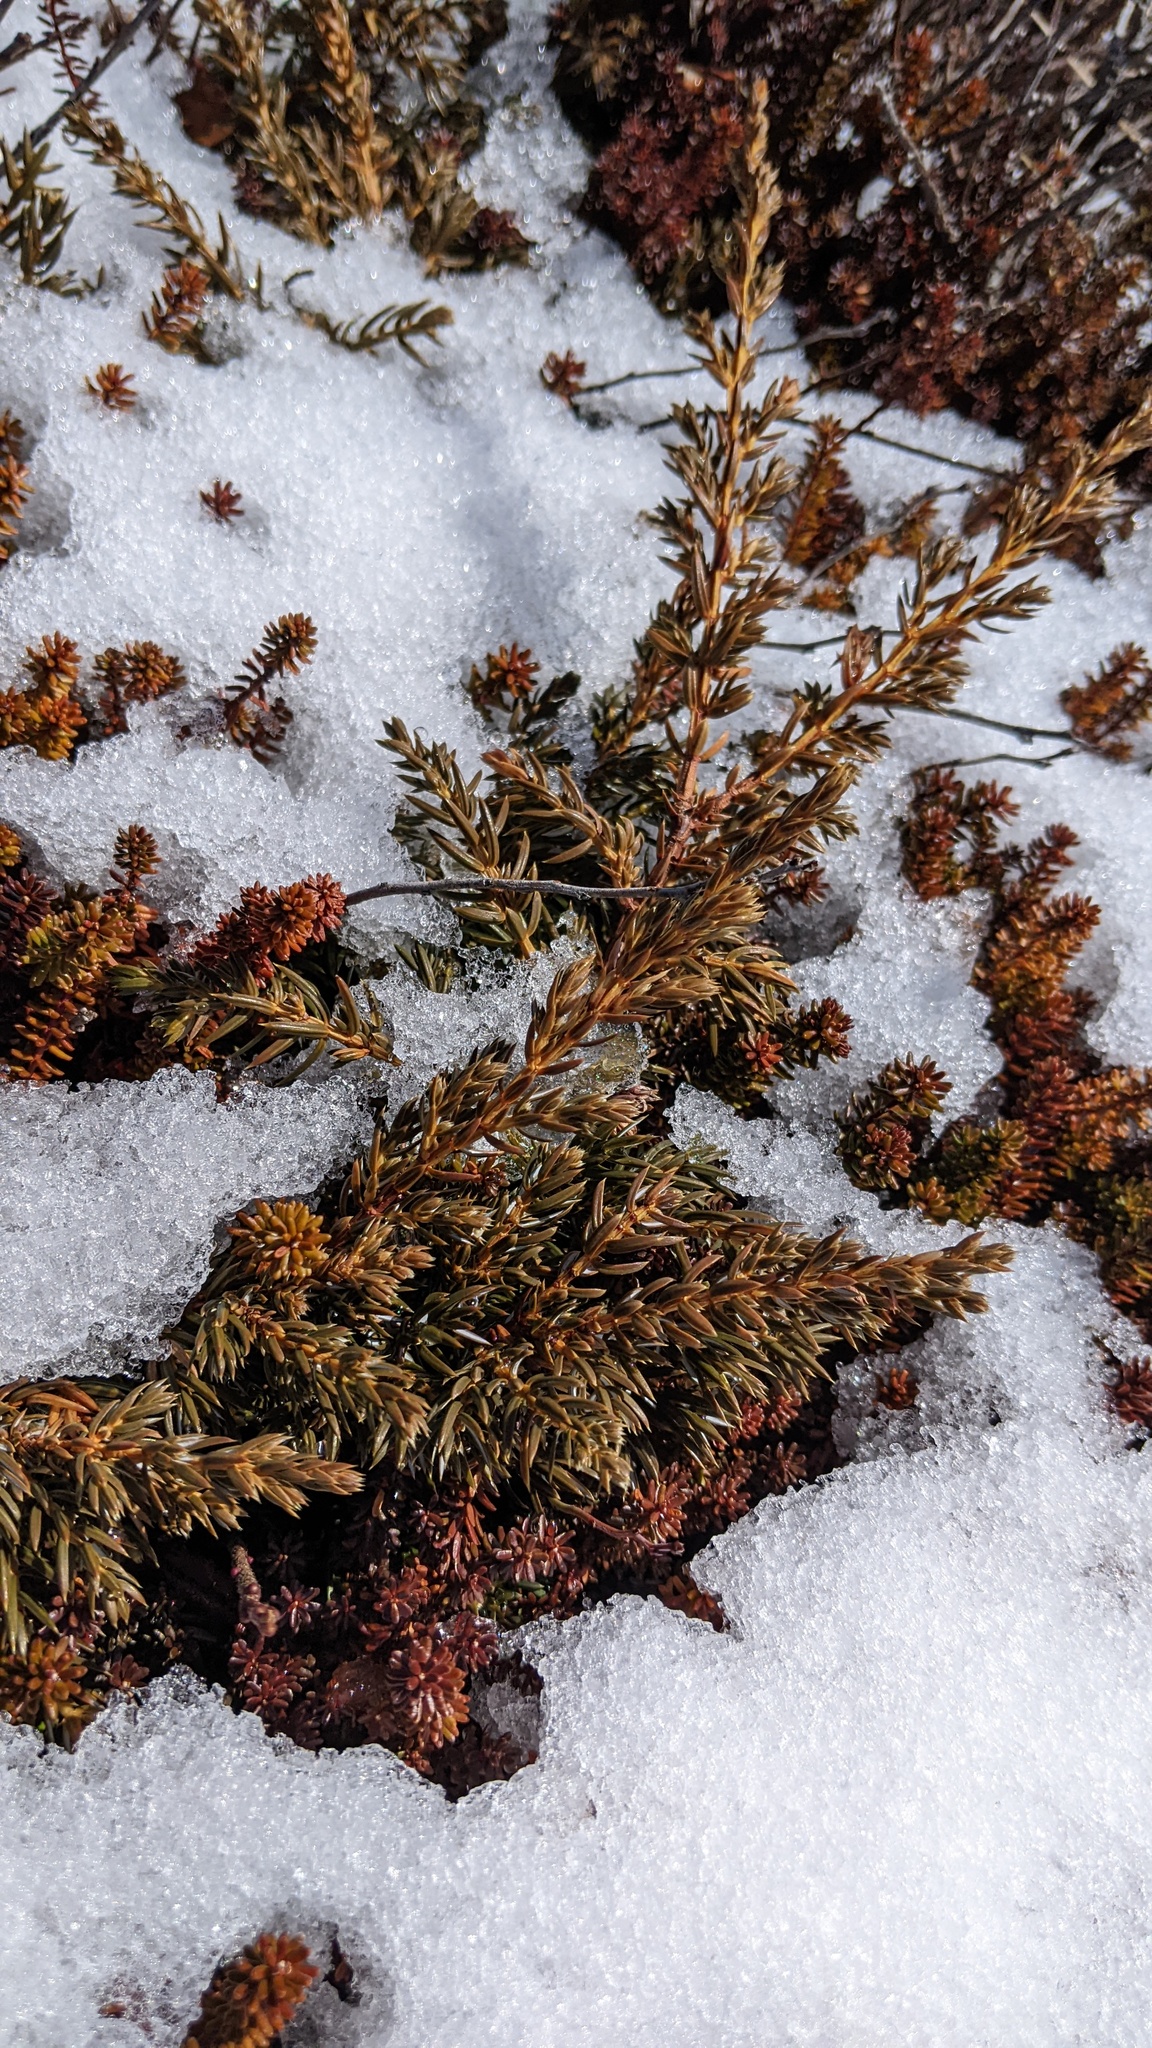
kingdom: Plantae
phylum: Tracheophyta
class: Pinopsida
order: Pinales
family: Cupressaceae
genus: Juniperus
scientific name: Juniperus communis
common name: Common juniper
